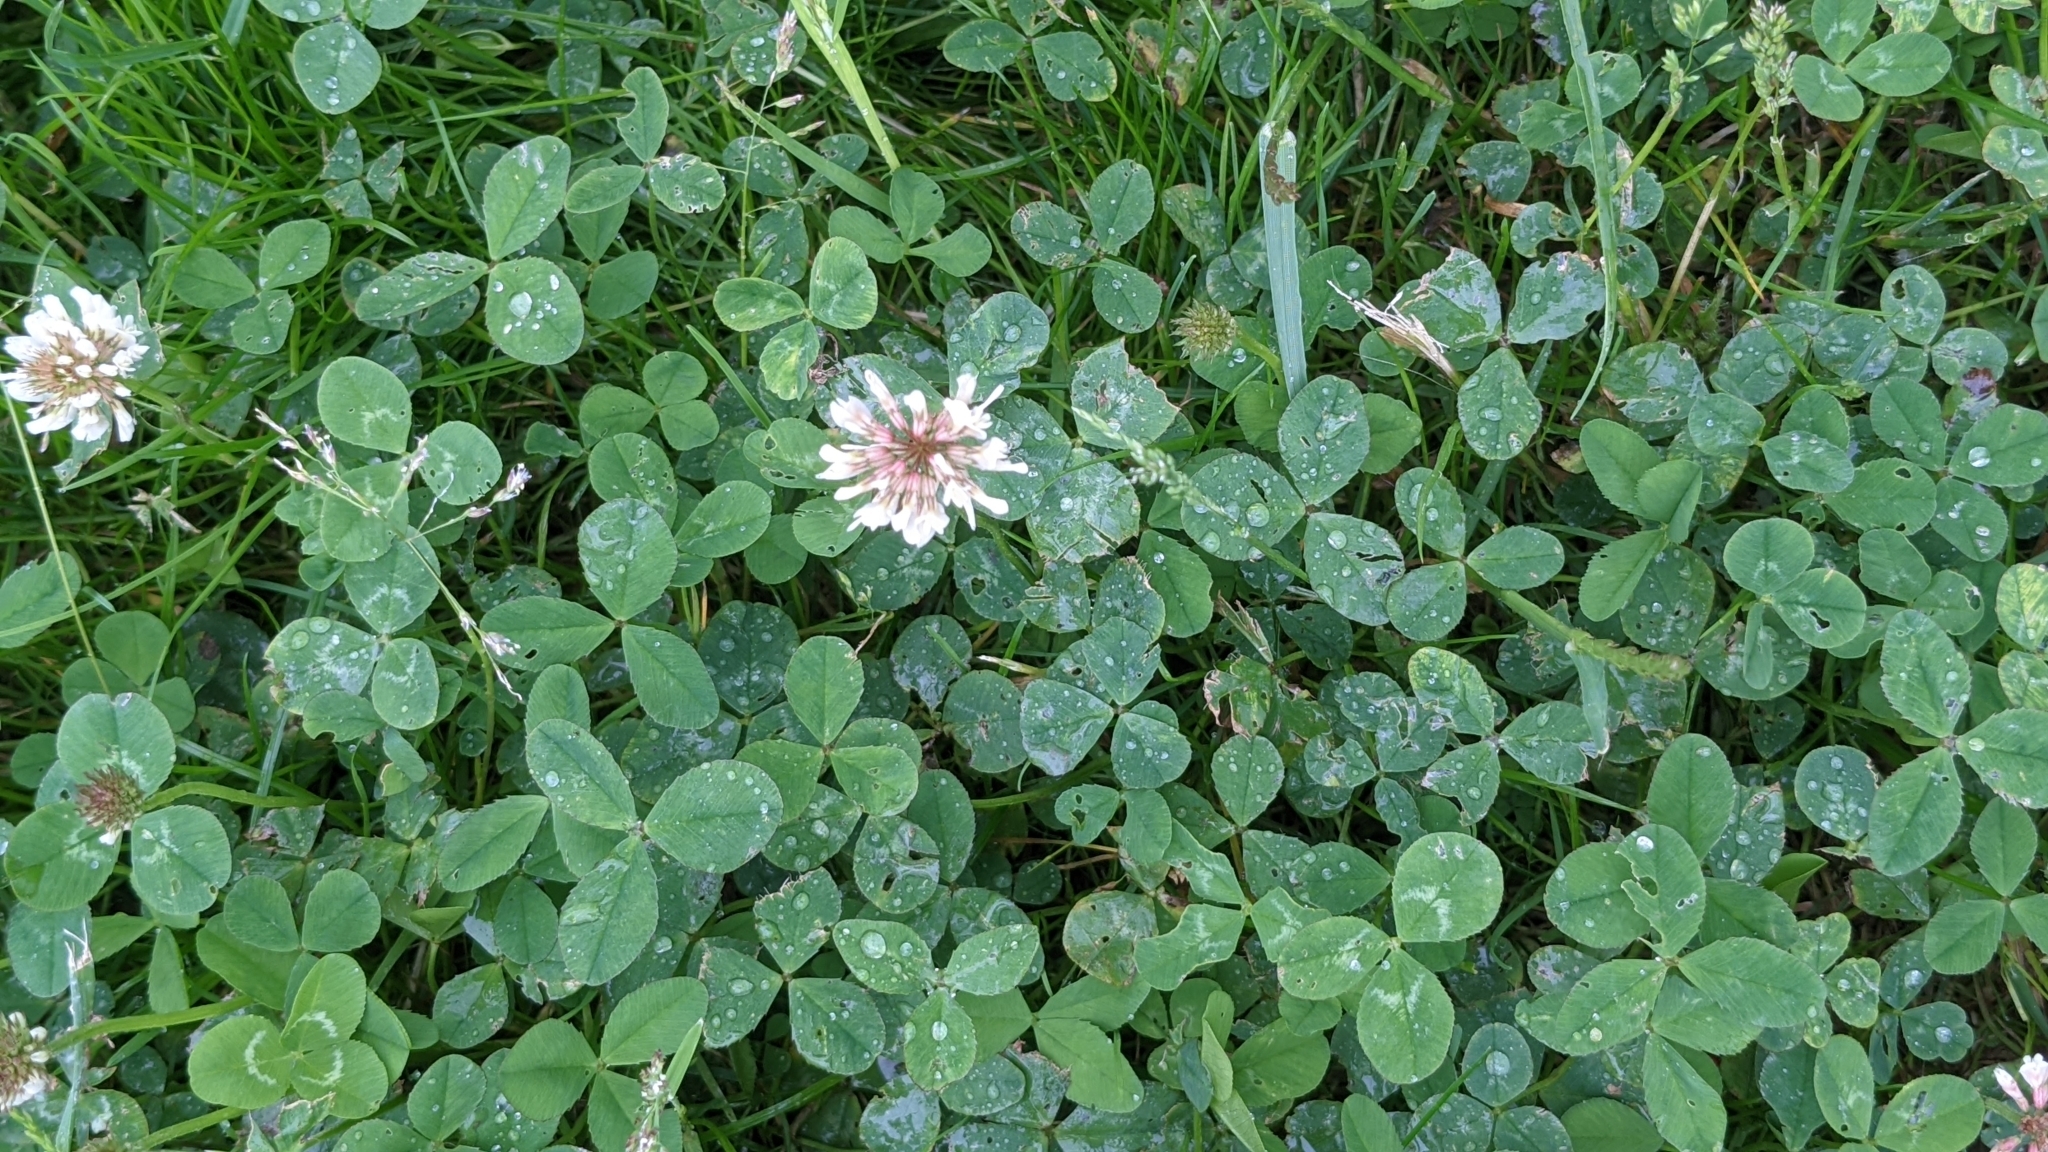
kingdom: Plantae
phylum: Tracheophyta
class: Magnoliopsida
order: Fabales
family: Fabaceae
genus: Trifolium
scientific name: Trifolium repens
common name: White clover
